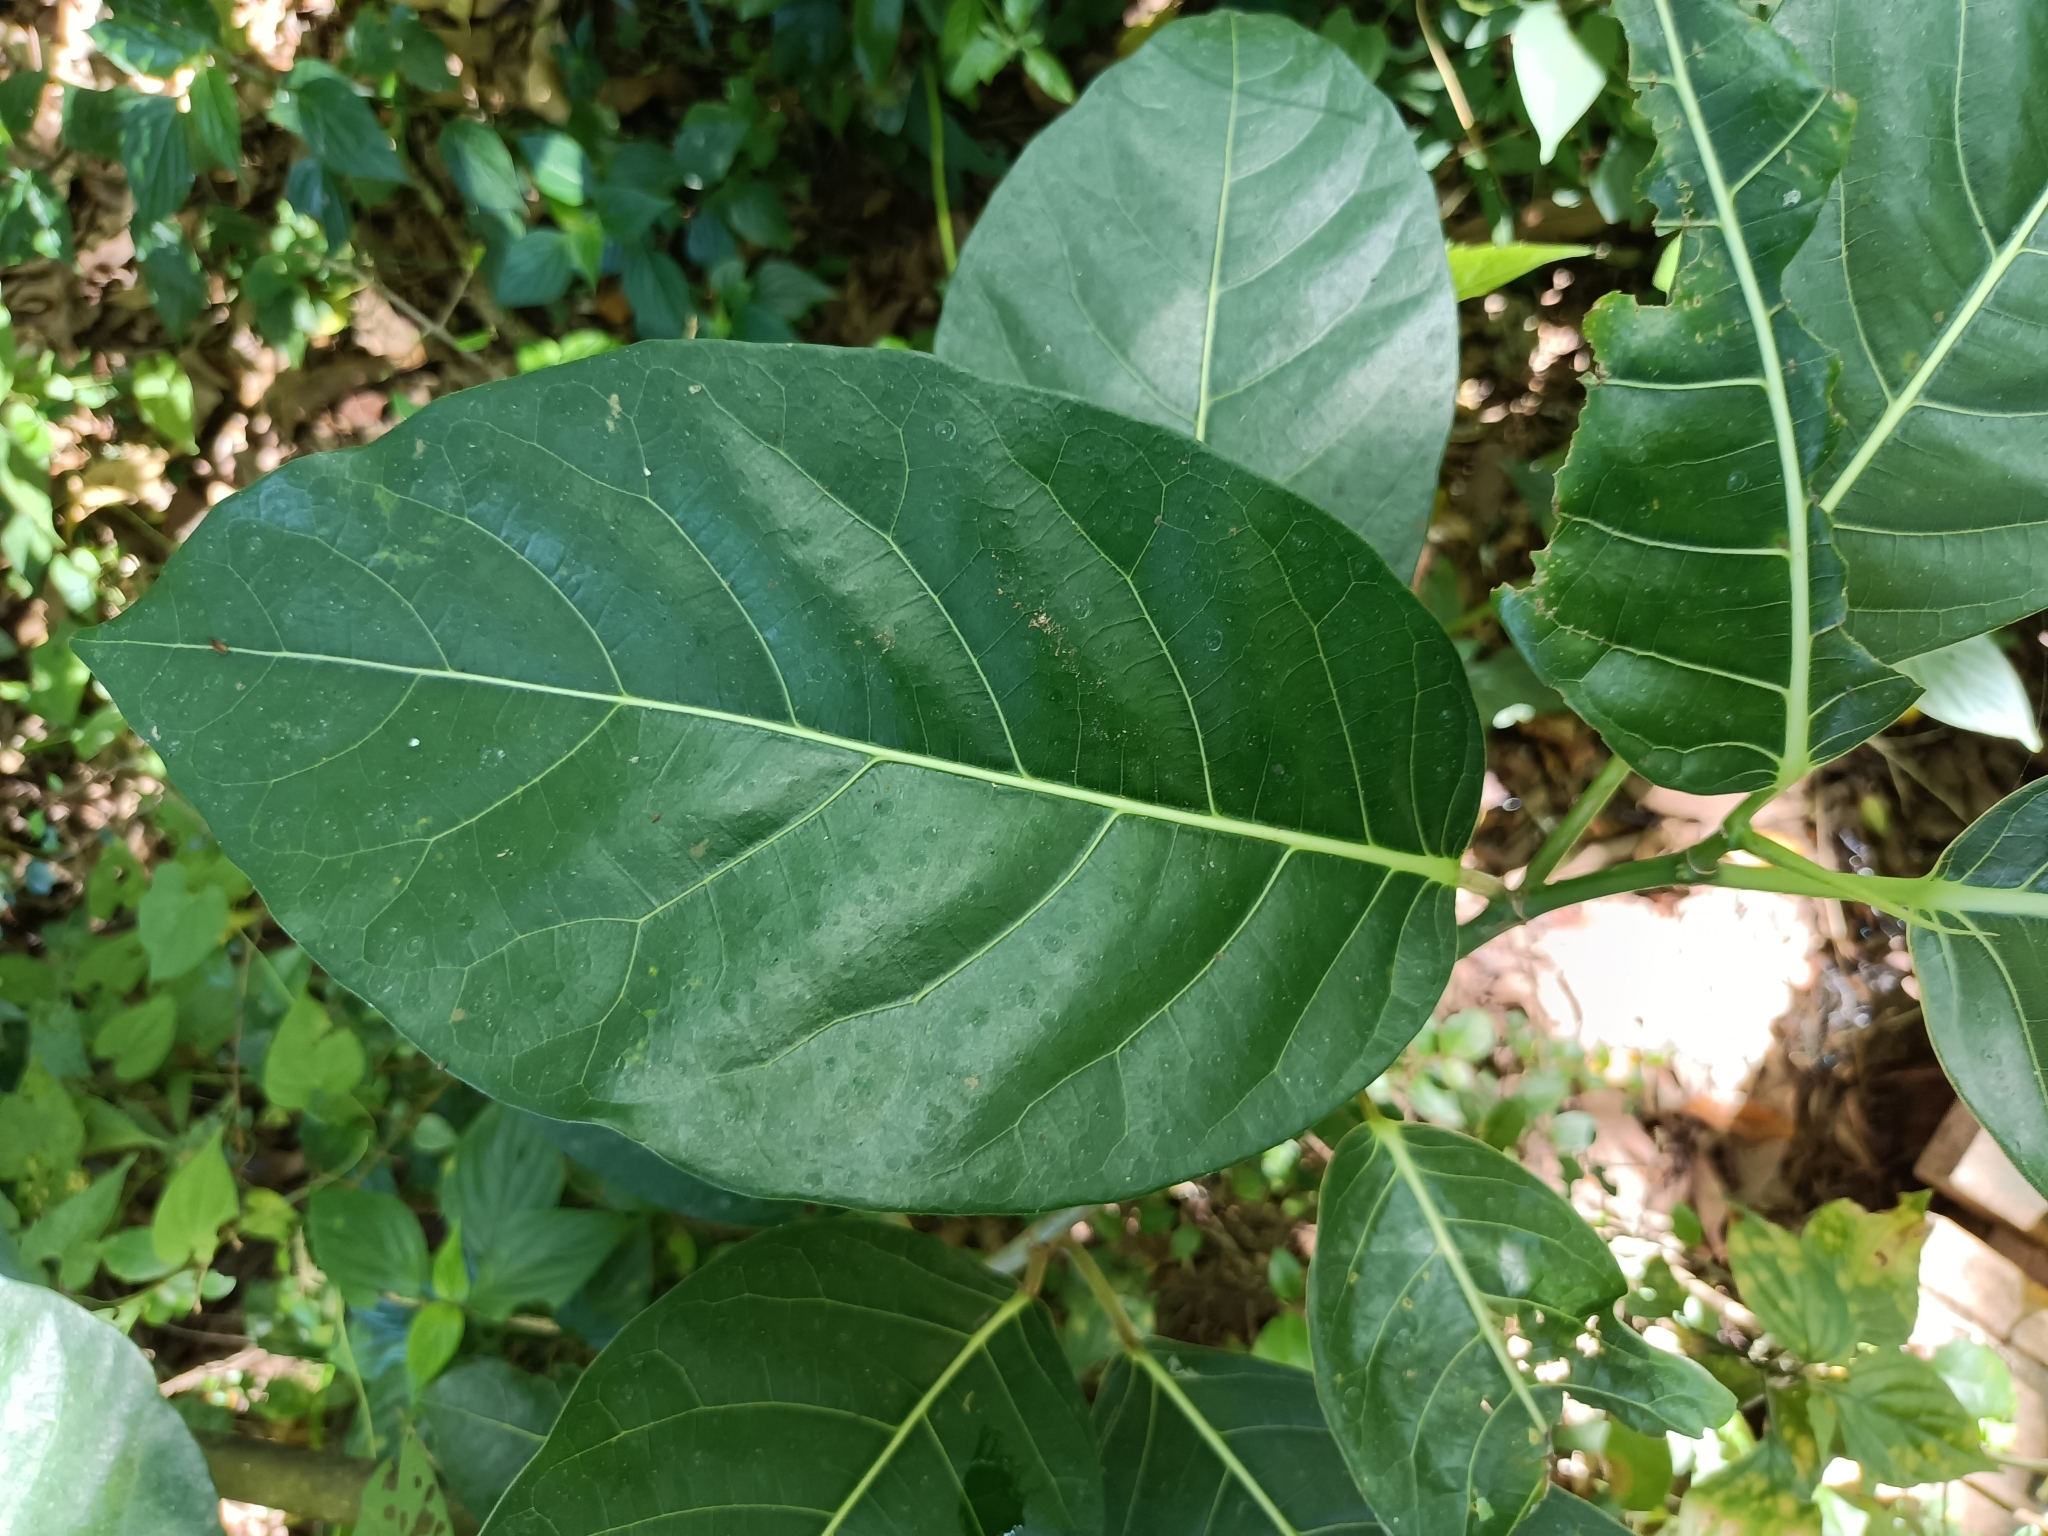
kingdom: Plantae
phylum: Tracheophyta
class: Magnoliopsida
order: Rosales
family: Moraceae
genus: Ficus
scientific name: Ficus septica
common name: Septic fig
